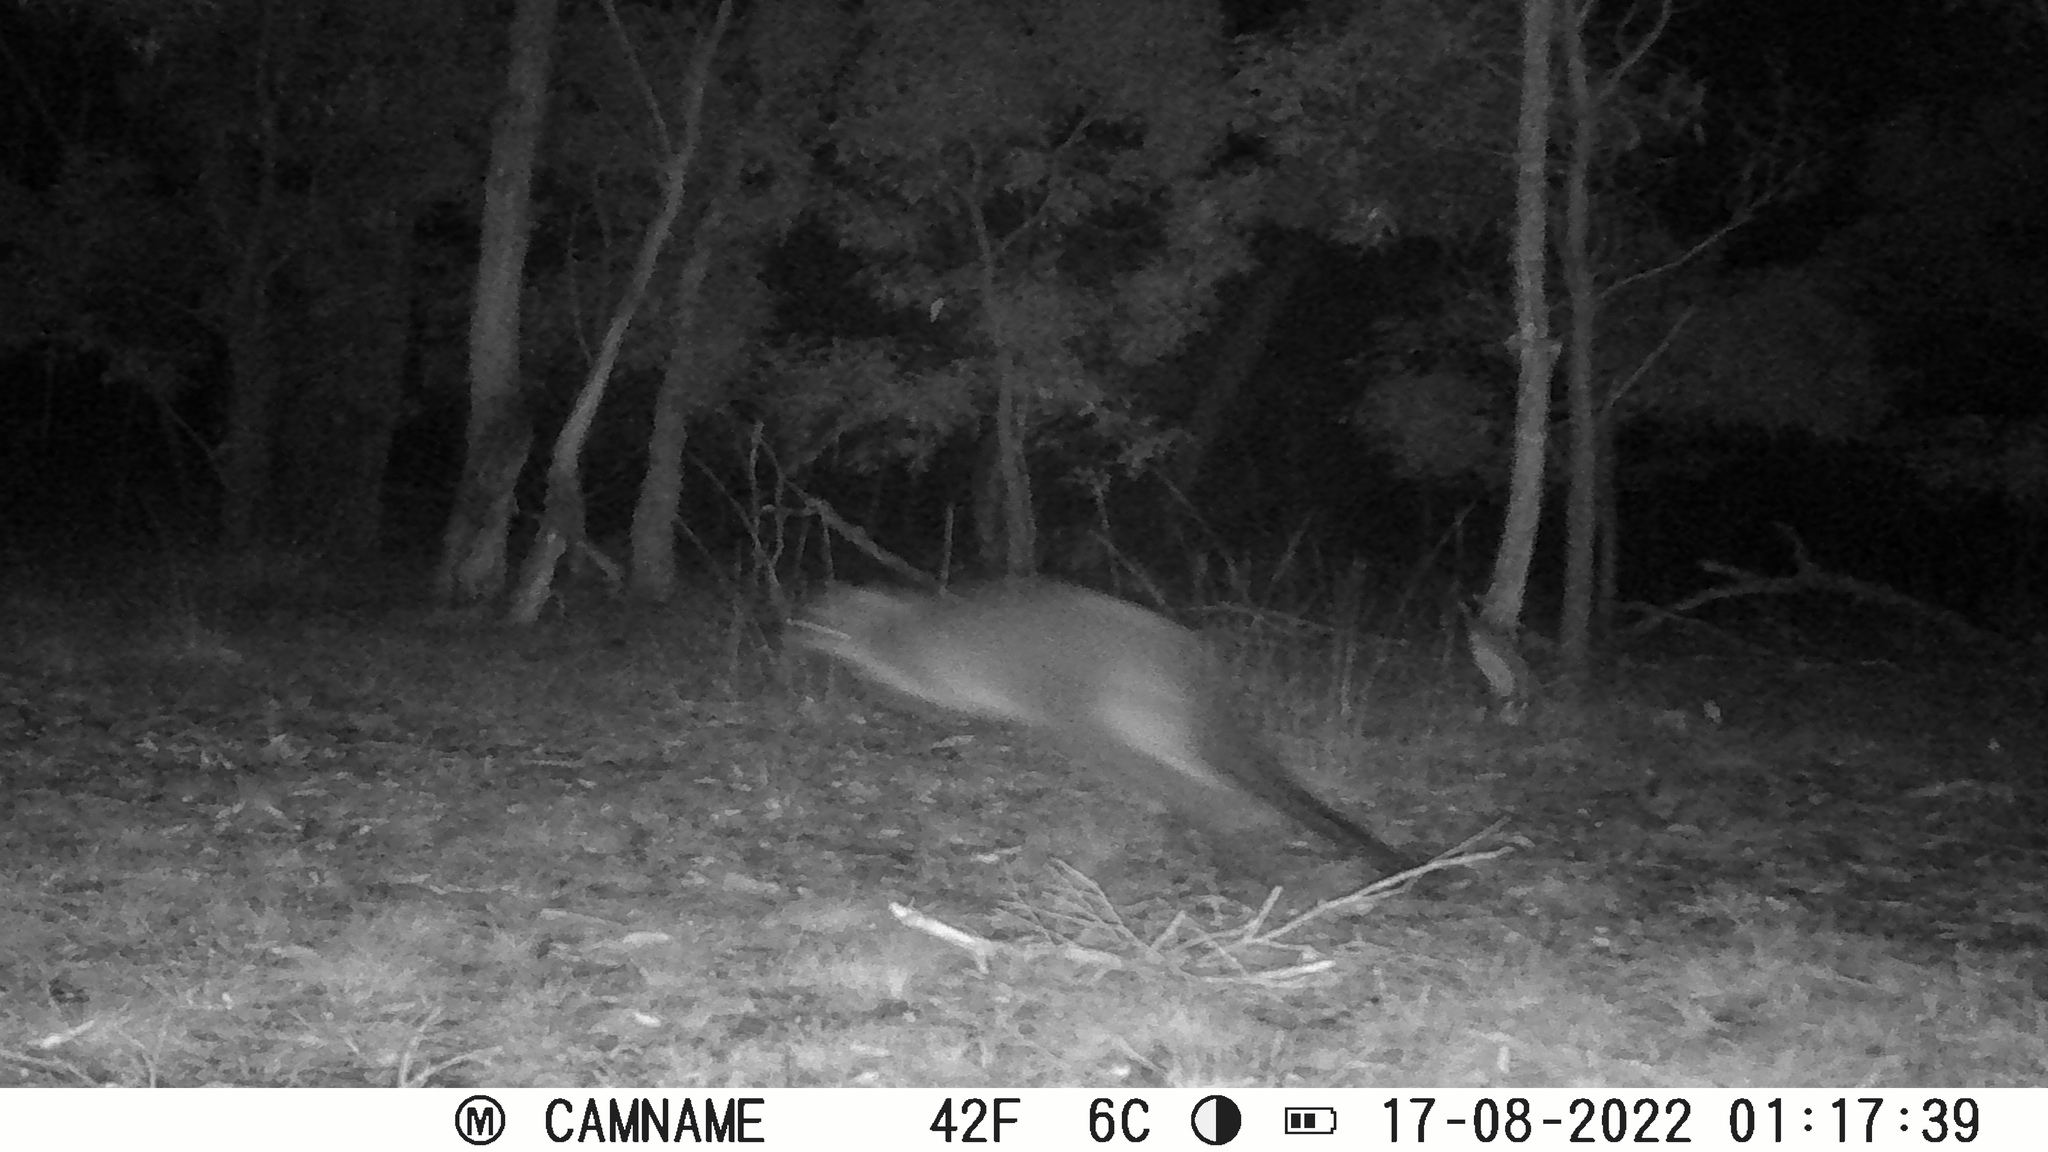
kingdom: Animalia
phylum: Chordata
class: Mammalia
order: Diprotodontia
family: Macropodidae
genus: Wallabia
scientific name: Wallabia bicolor
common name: Swamp wallaby
